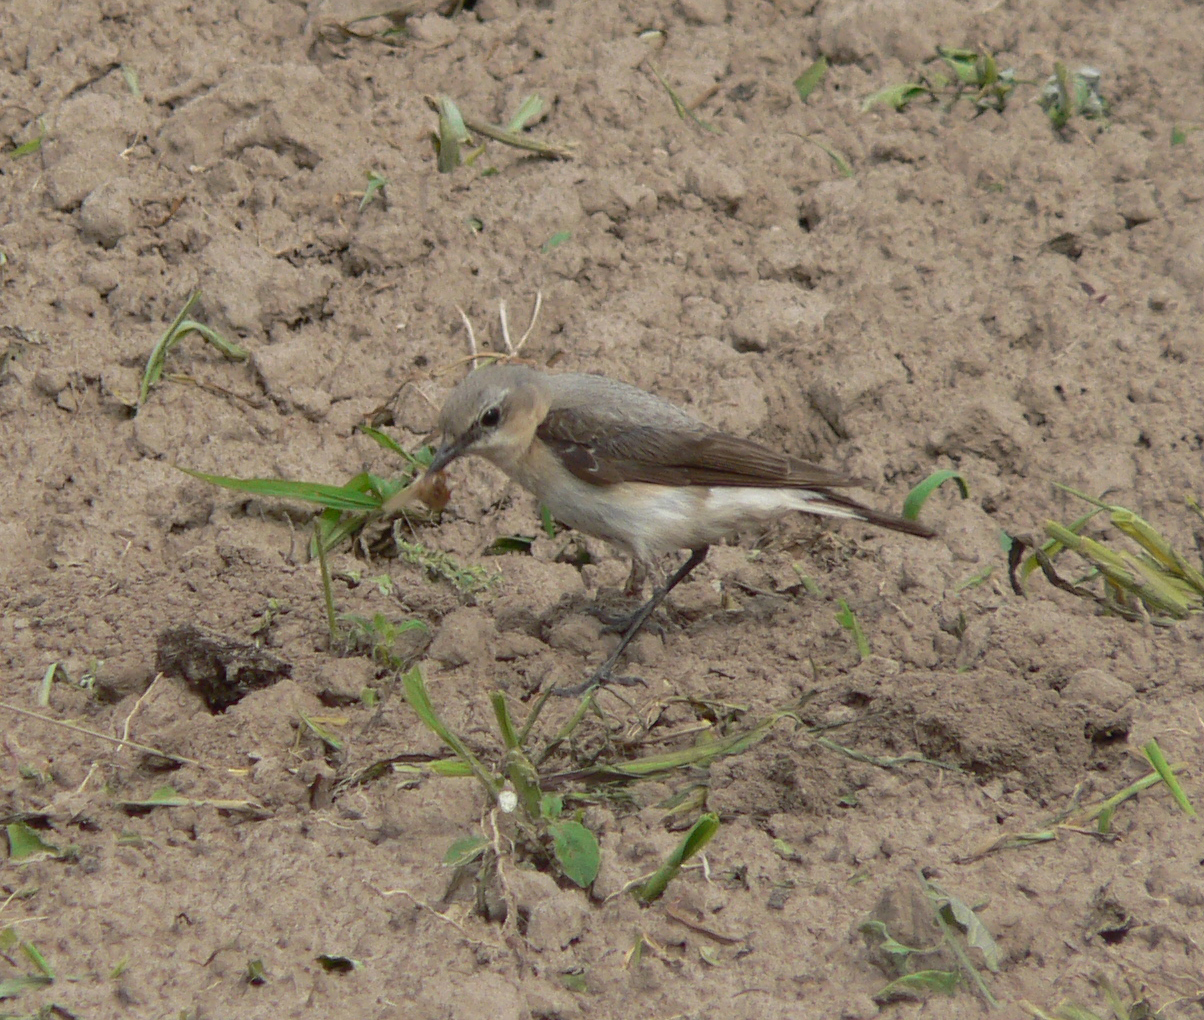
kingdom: Animalia
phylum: Chordata
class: Aves
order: Passeriformes
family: Muscicapidae
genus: Oenanthe
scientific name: Oenanthe oenanthe
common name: Northern wheatear
